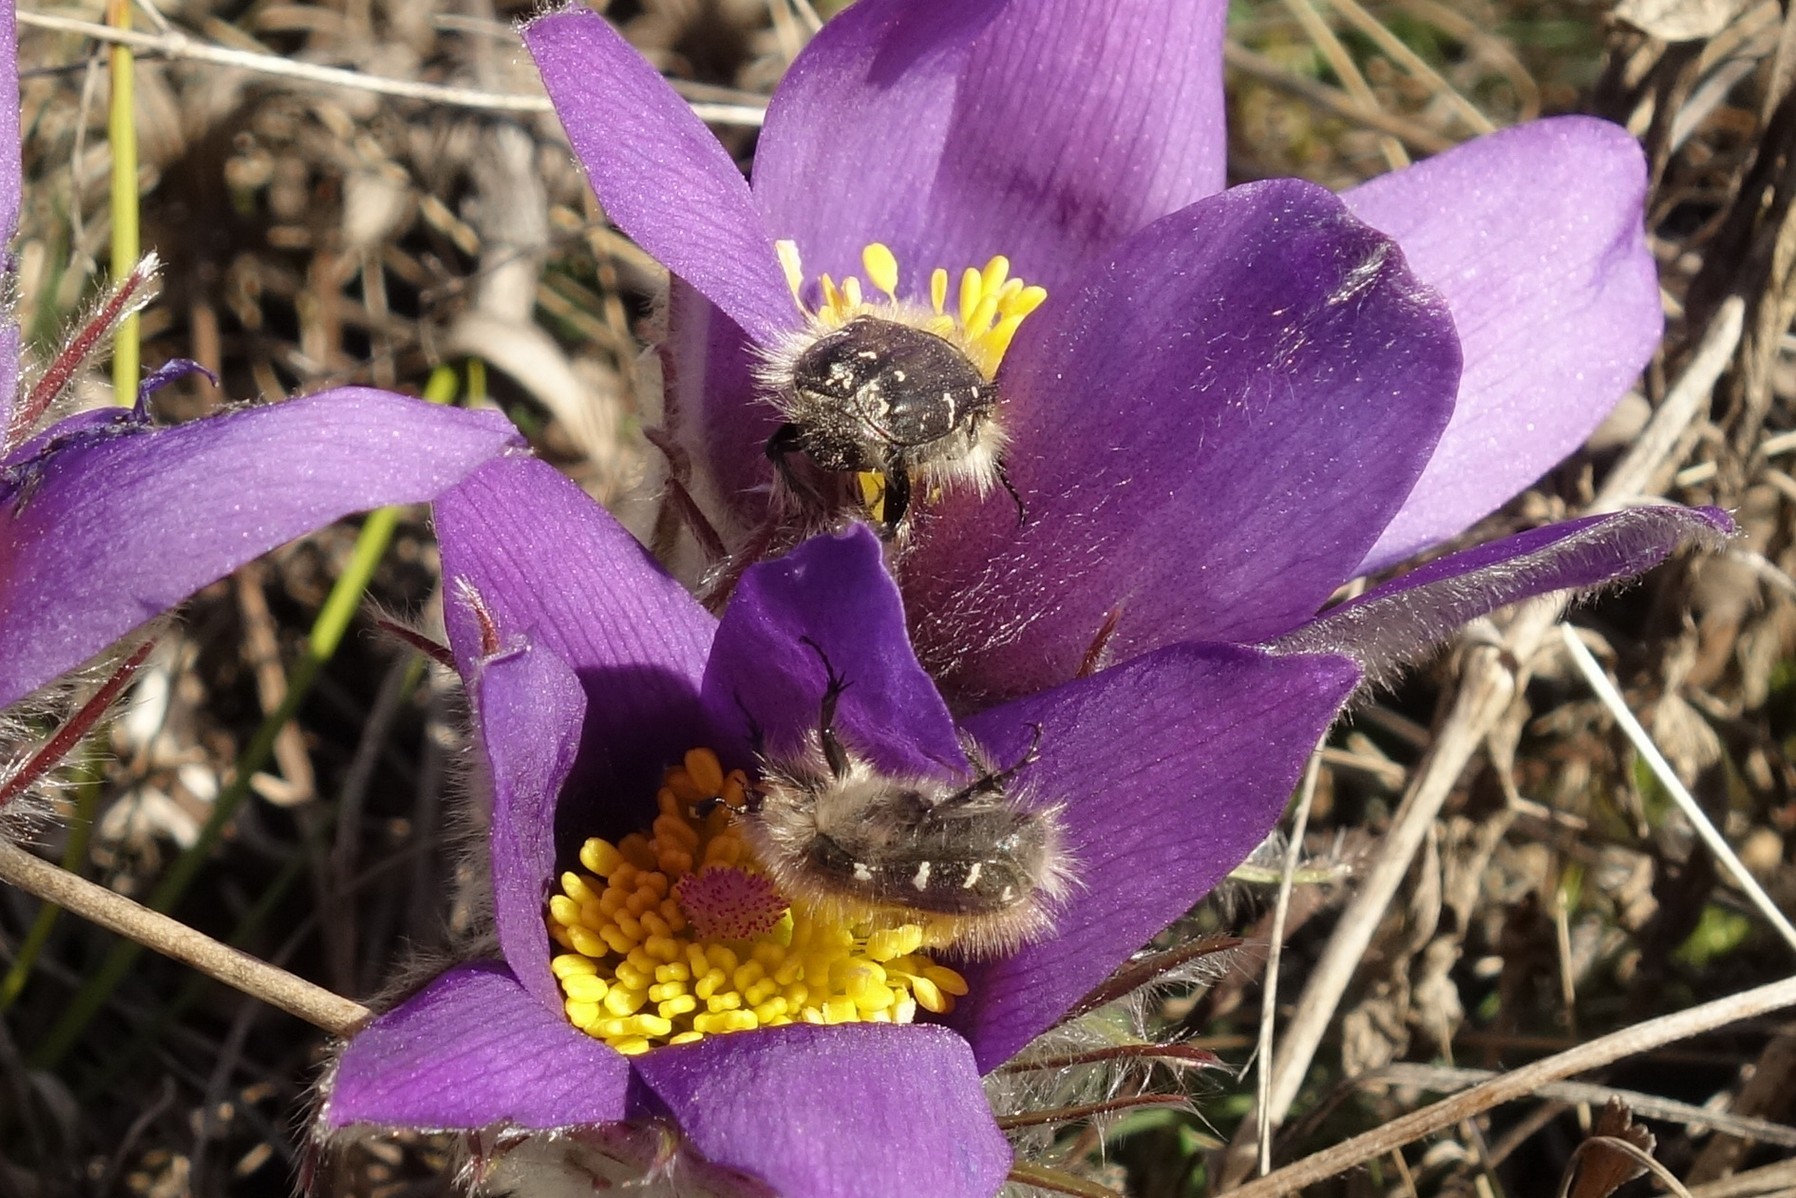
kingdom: Animalia
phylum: Arthropoda
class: Insecta
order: Coleoptera
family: Scarabaeidae
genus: Tropinota
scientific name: Tropinota hirta
